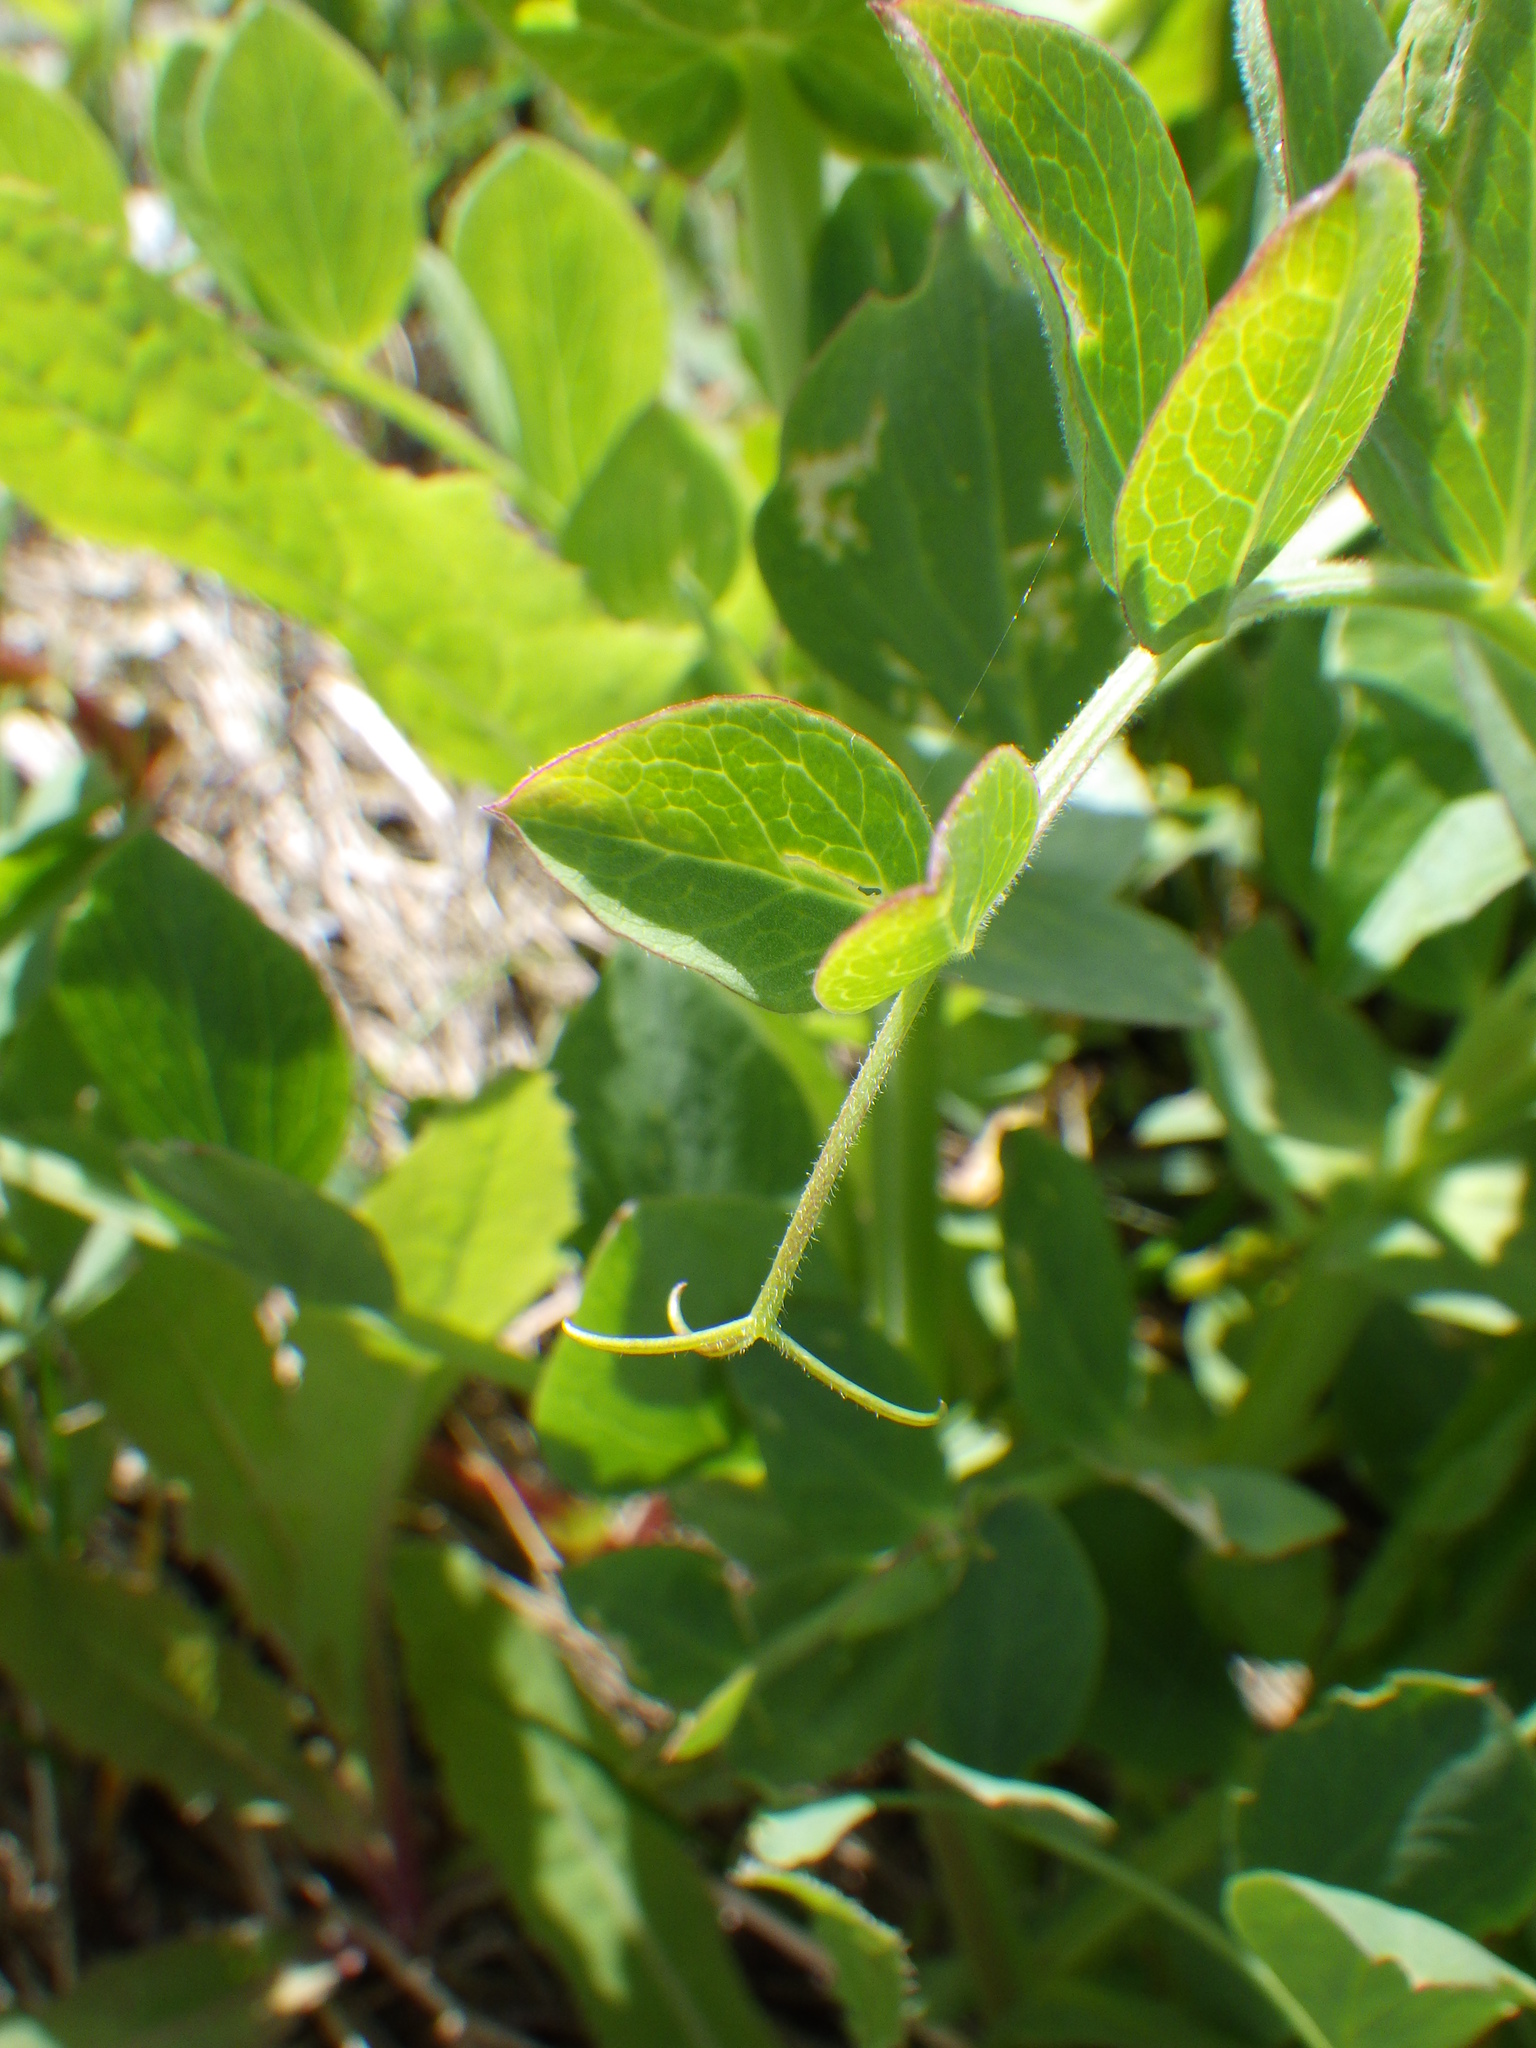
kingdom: Plantae
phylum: Tracheophyta
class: Magnoliopsida
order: Fabales
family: Fabaceae
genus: Lathyrus
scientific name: Lathyrus japonicus
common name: Sea pea
